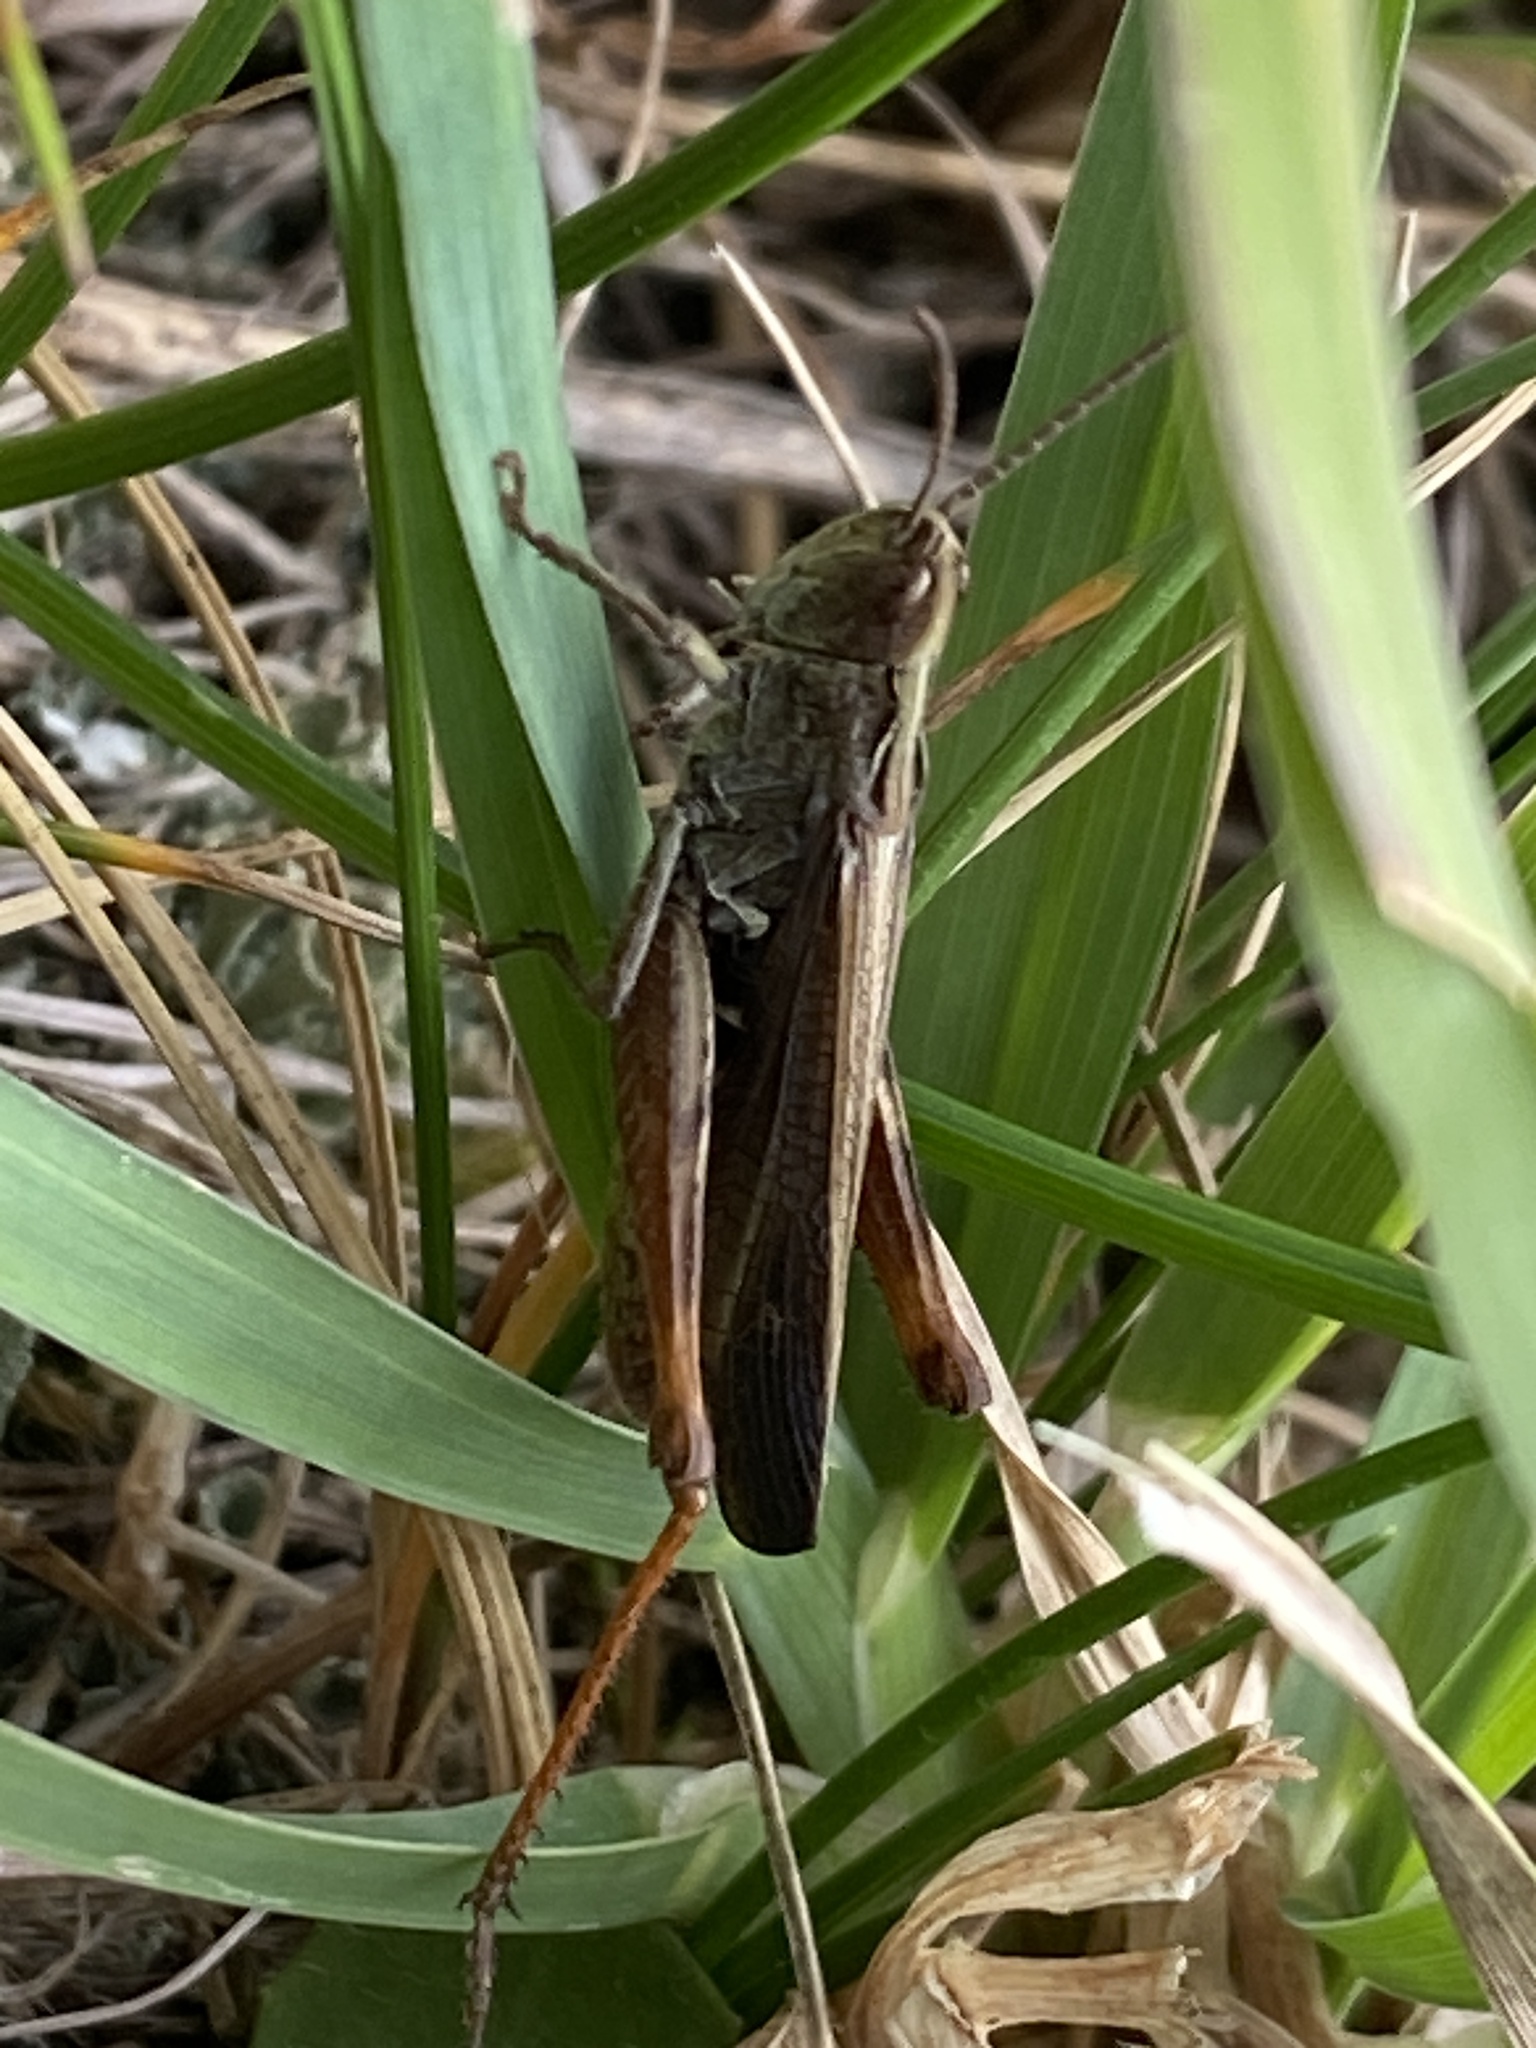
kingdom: Animalia
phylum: Arthropoda
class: Insecta
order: Orthoptera
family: Acrididae
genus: Chorthippus
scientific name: Chorthippus biguttulus
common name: Bow-winged grasshopper
